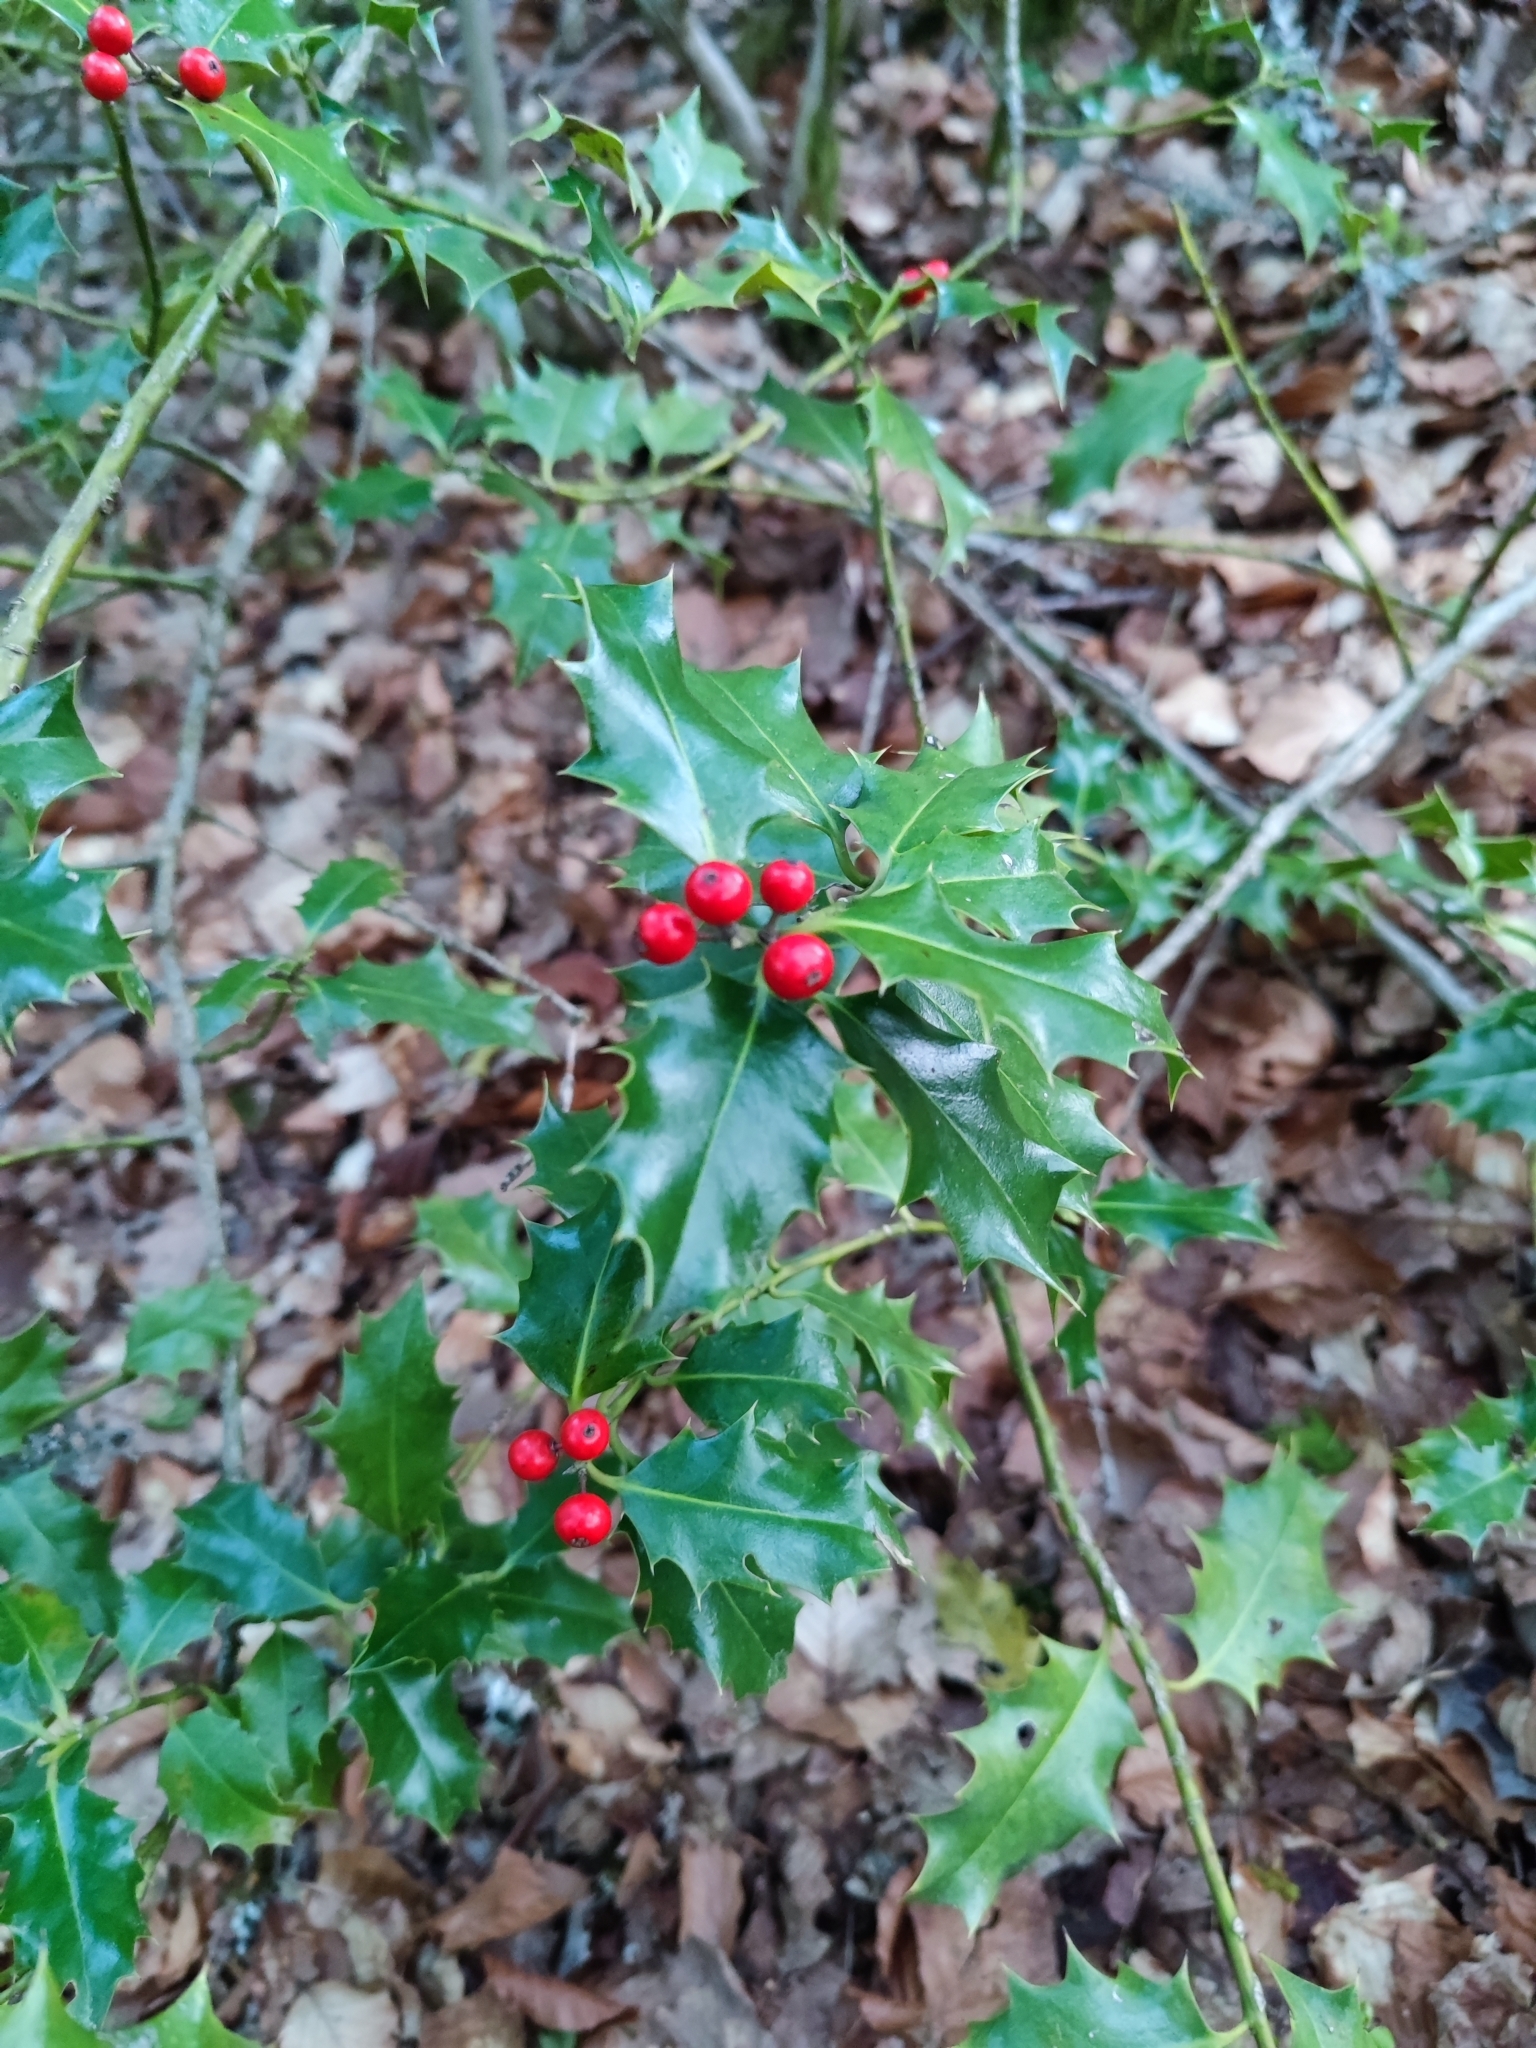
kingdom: Plantae
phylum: Tracheophyta
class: Magnoliopsida
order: Aquifoliales
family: Aquifoliaceae
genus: Ilex
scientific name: Ilex aquifolium
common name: English holly
